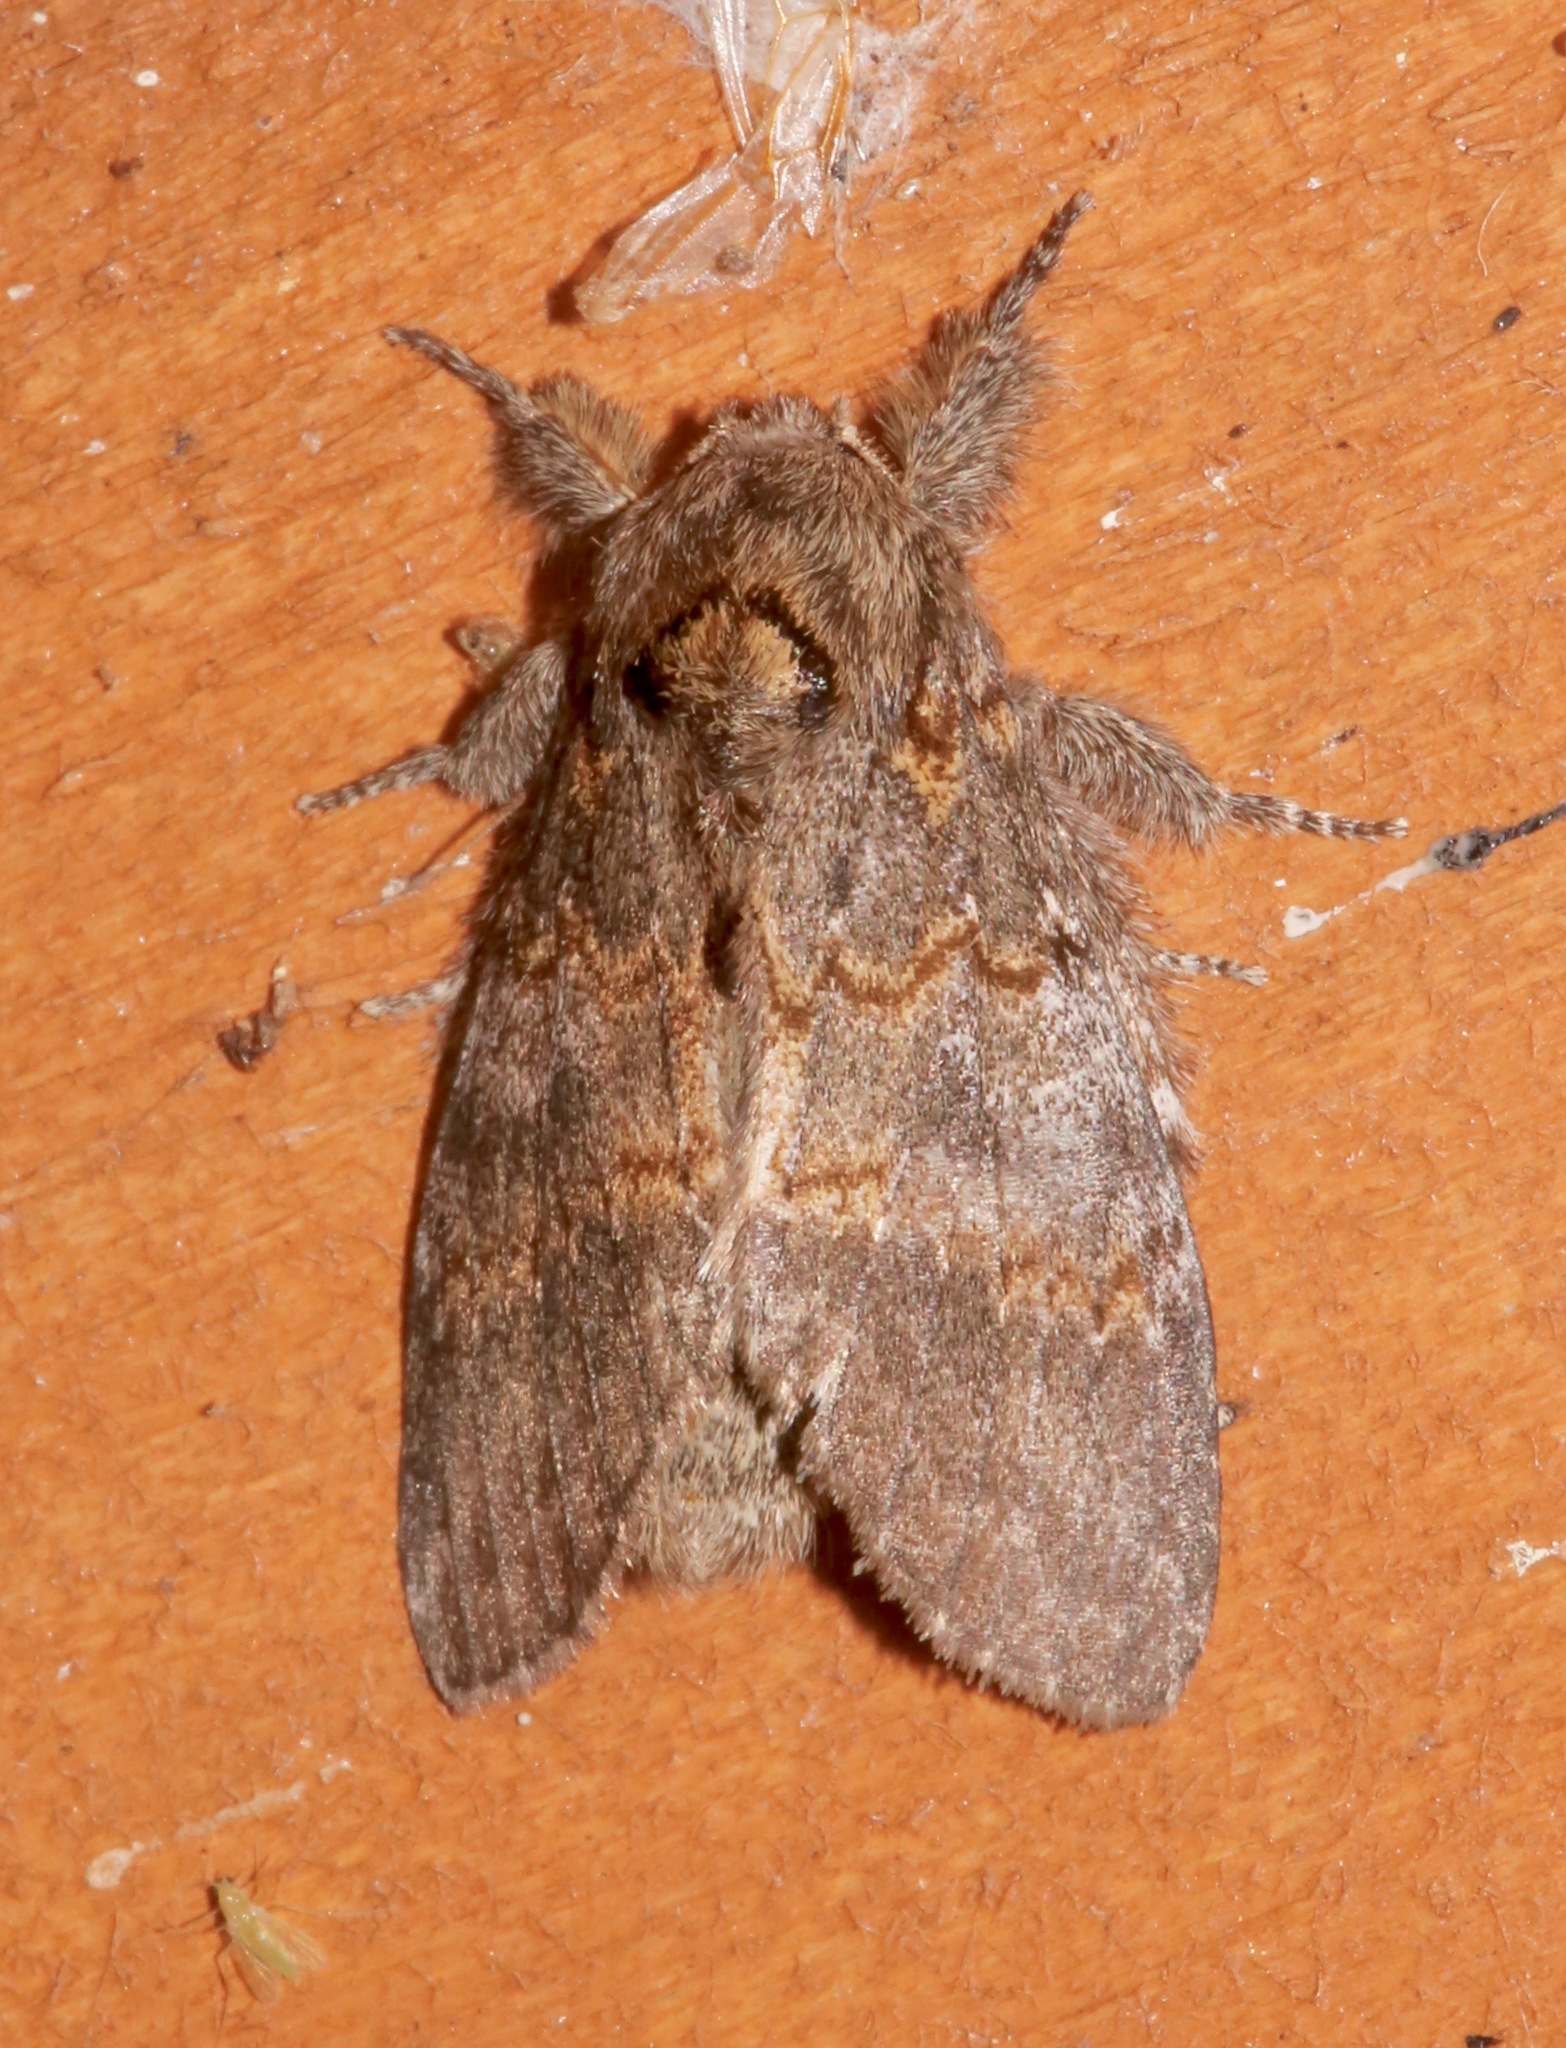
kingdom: Animalia
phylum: Arthropoda
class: Insecta
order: Lepidoptera
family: Notodontidae
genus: Peridea
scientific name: Peridea angulosa
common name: Angulose prominent
